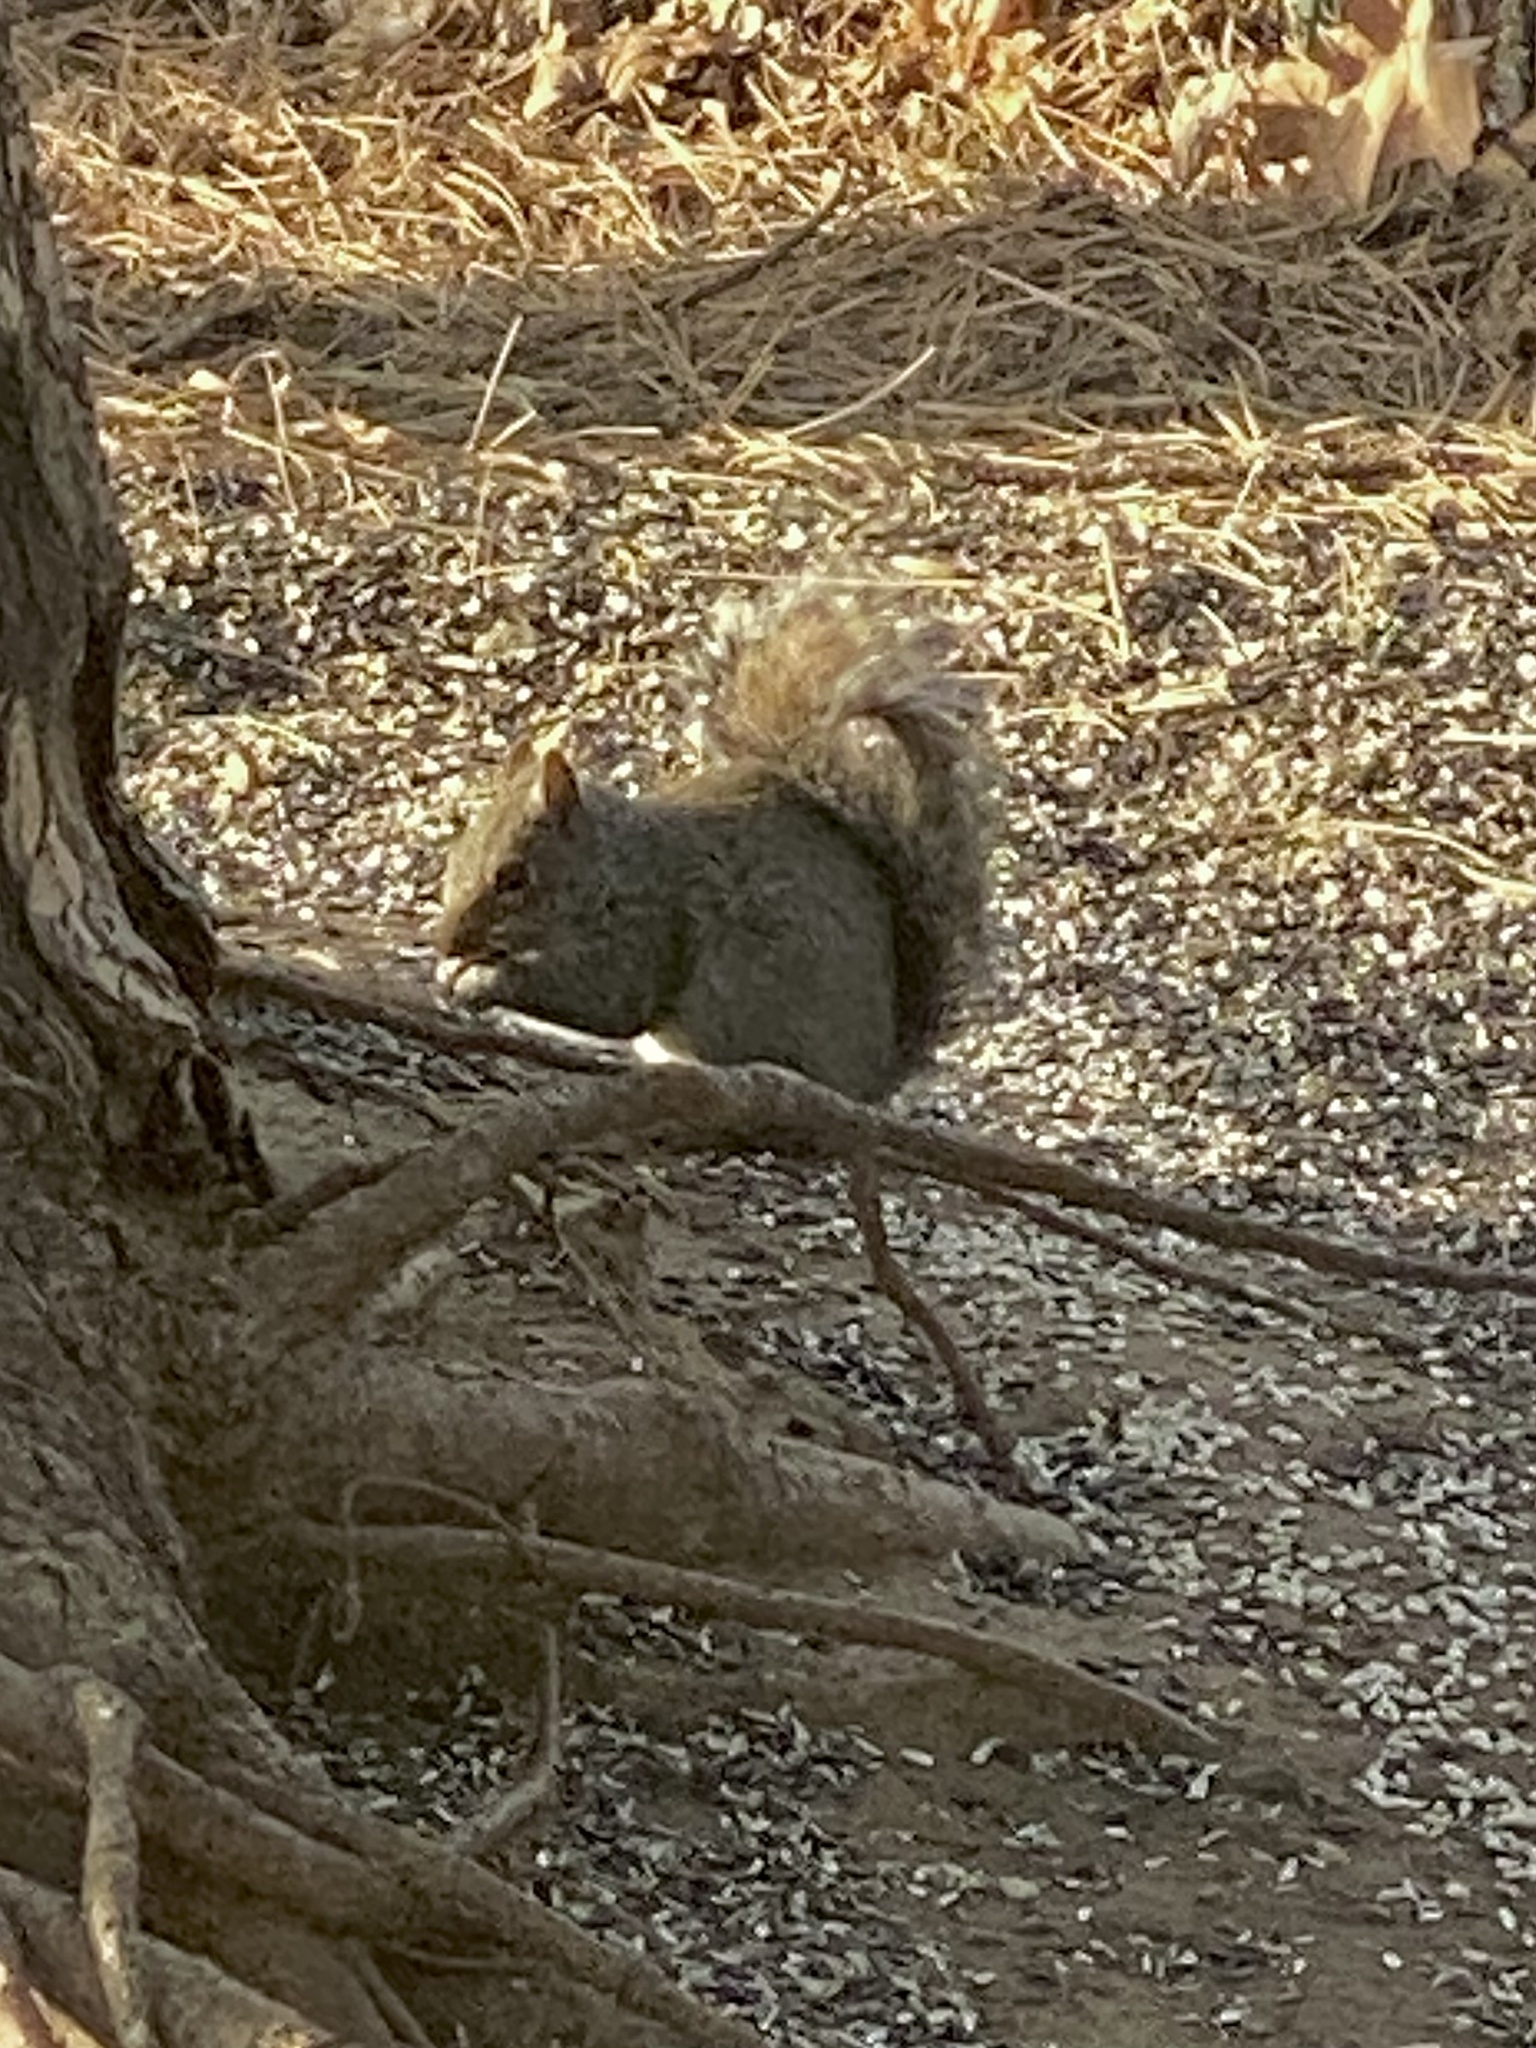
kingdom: Animalia
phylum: Chordata
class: Mammalia
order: Rodentia
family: Sciuridae
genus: Sciurus
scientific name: Sciurus carolinensis
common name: Eastern gray squirrel
